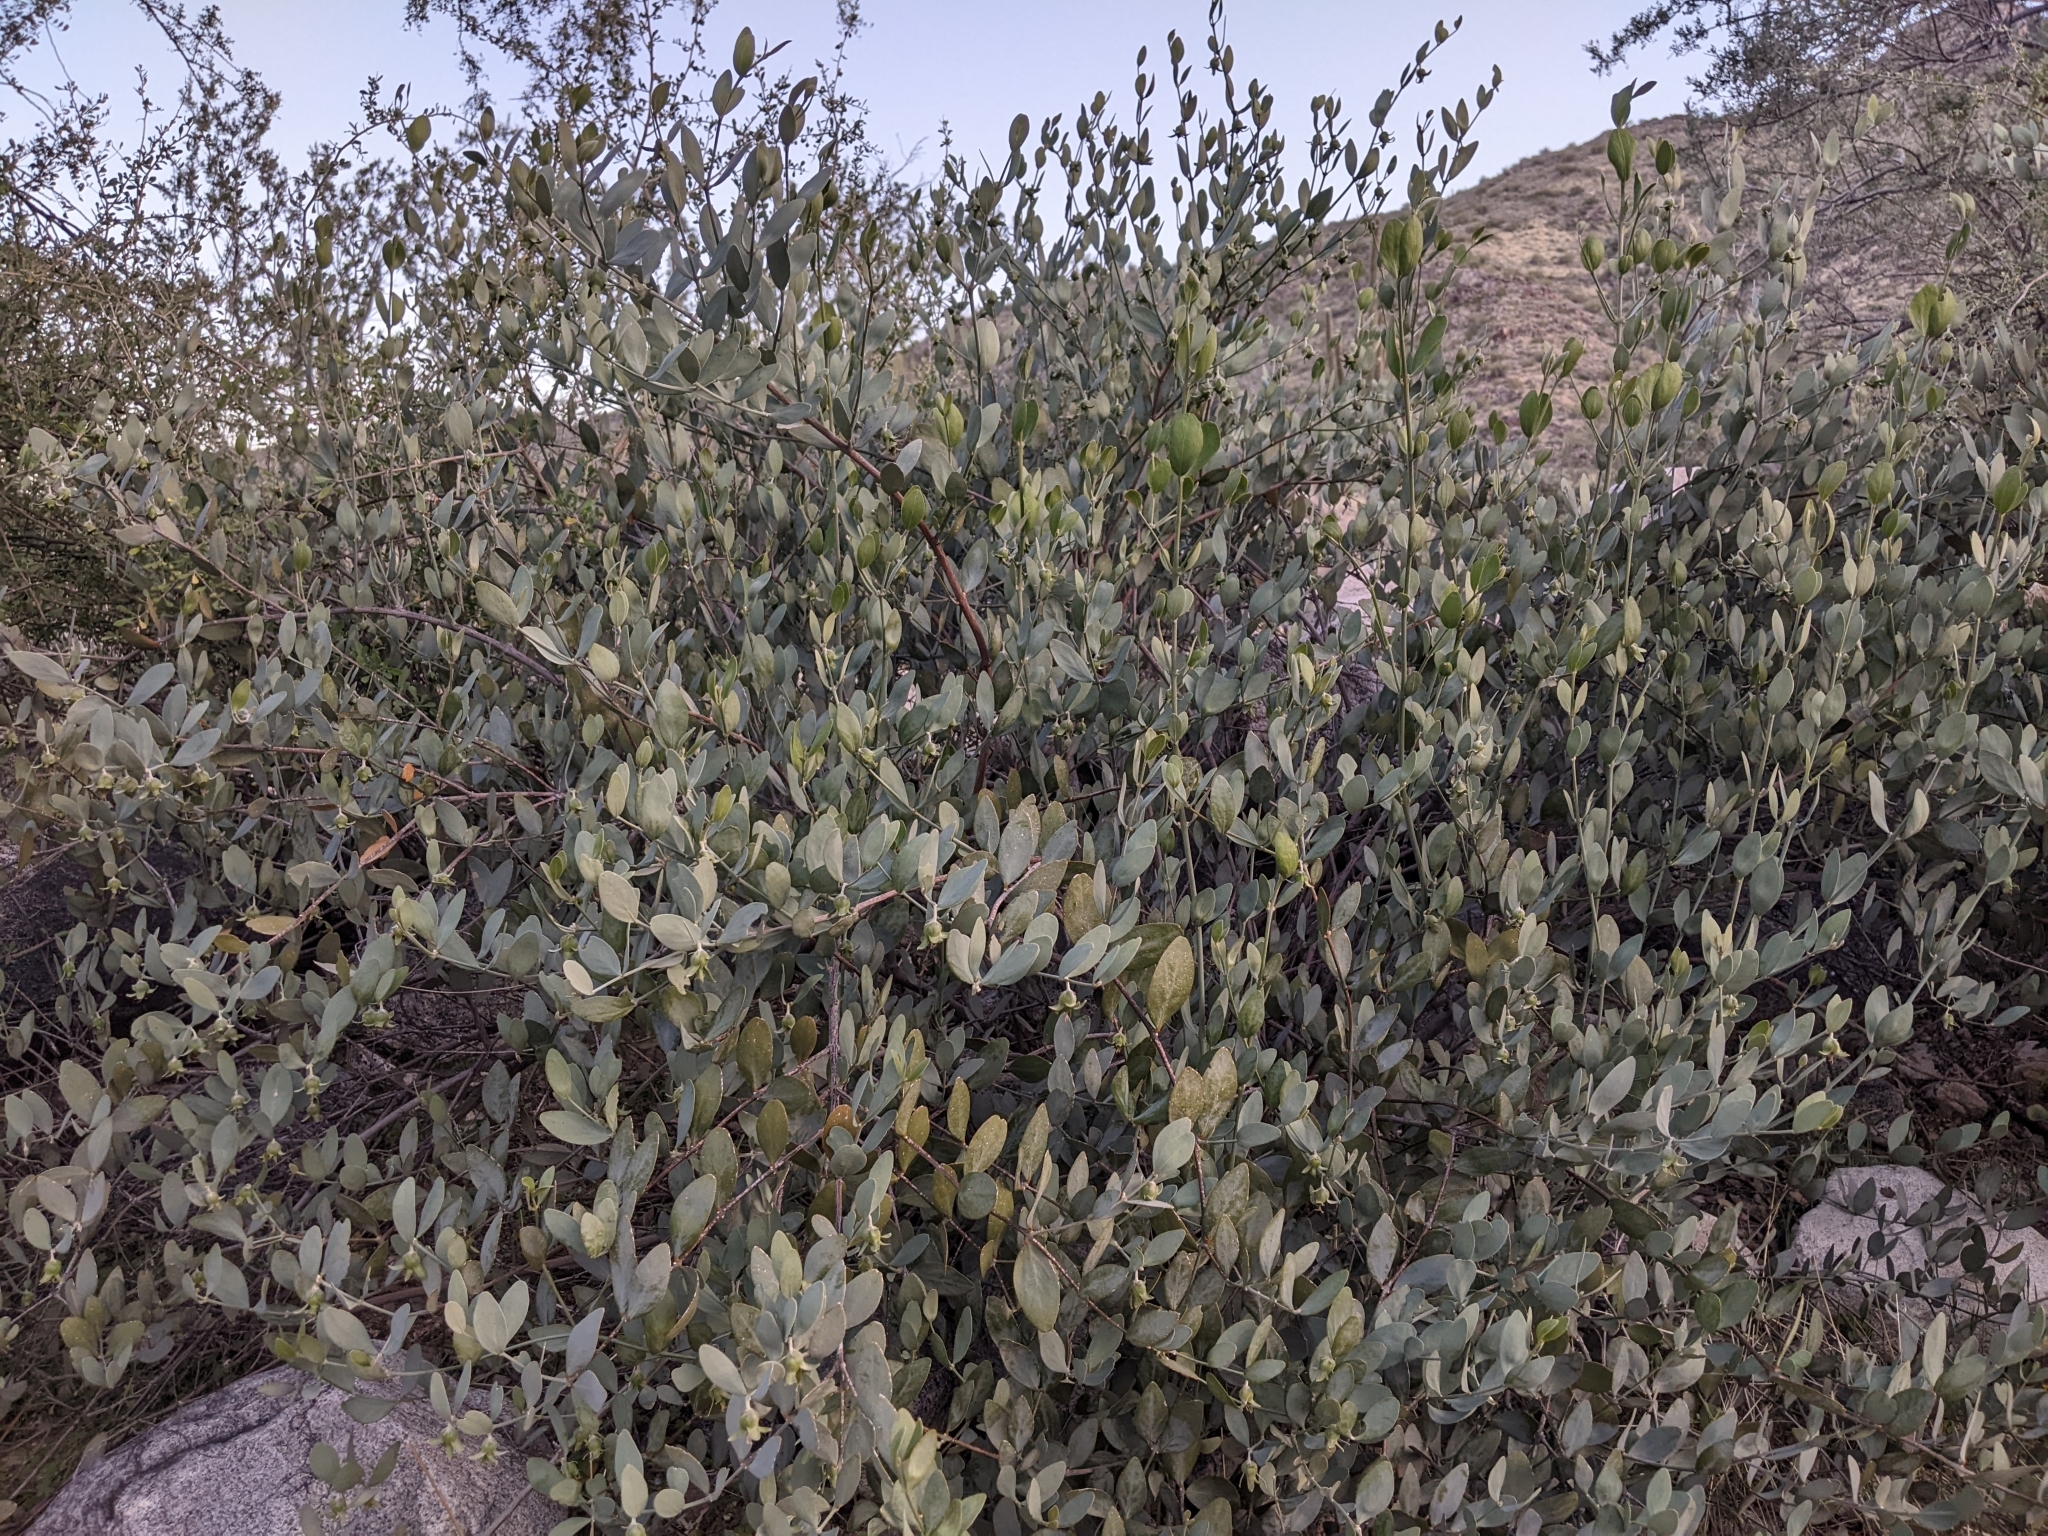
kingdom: Plantae
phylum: Tracheophyta
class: Magnoliopsida
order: Caryophyllales
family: Simmondsiaceae
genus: Simmondsia
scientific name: Simmondsia chinensis
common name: Jojoba
